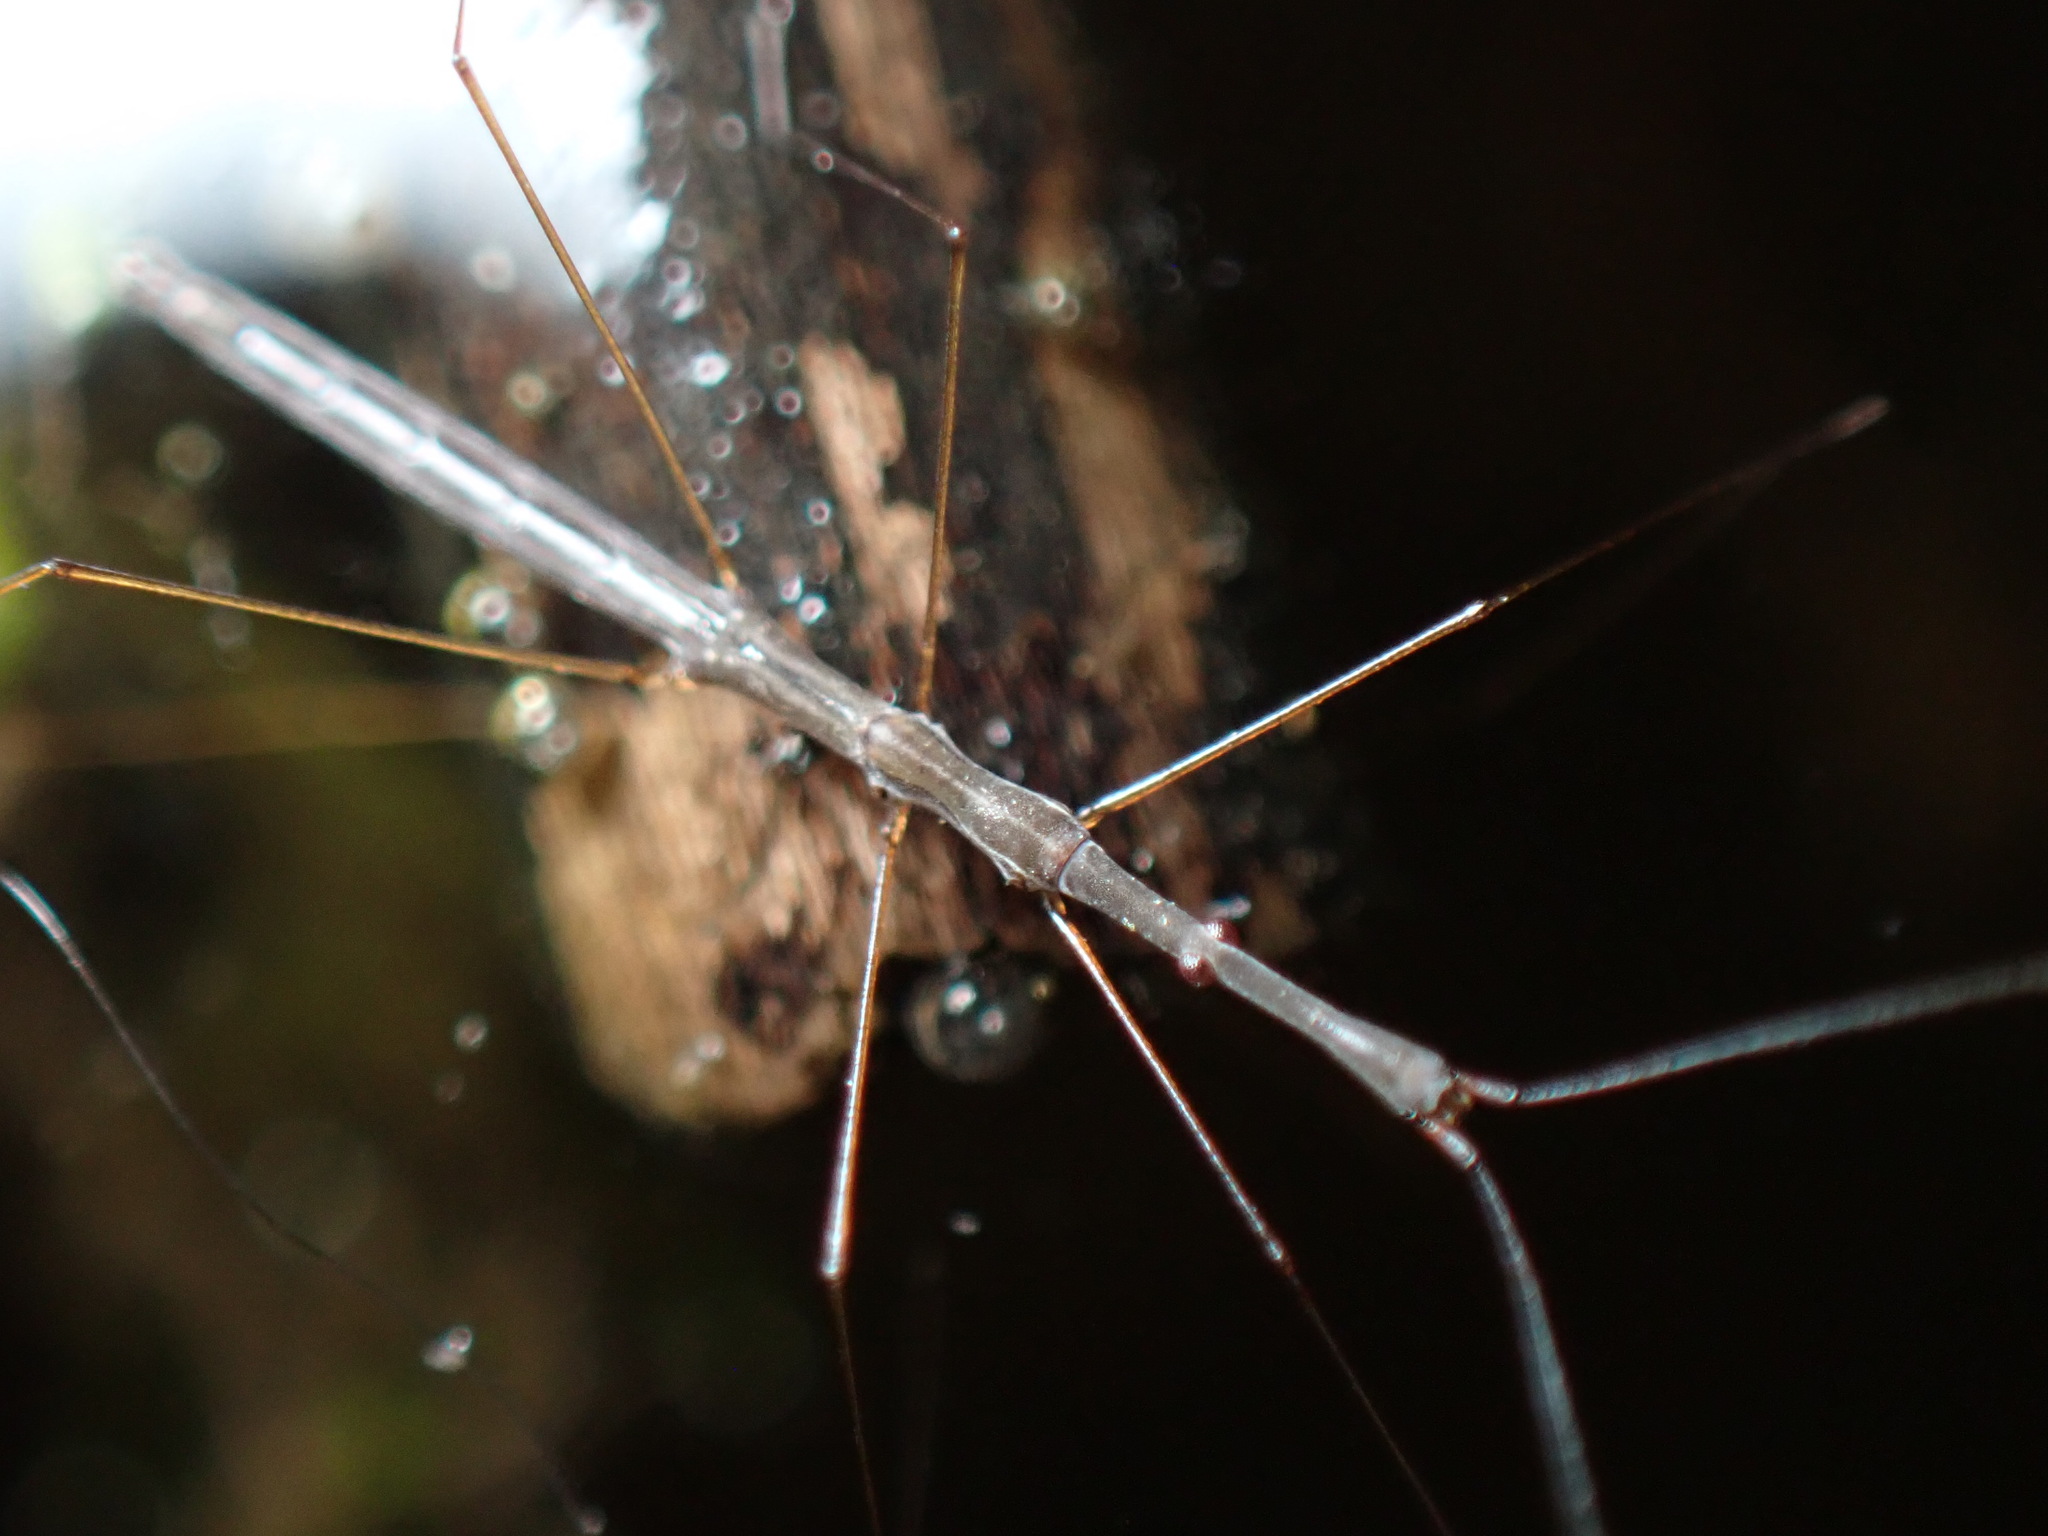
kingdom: Animalia
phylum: Arthropoda
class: Insecta
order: Hemiptera
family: Hydrometridae
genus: Hydrometra
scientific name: Hydrometra
